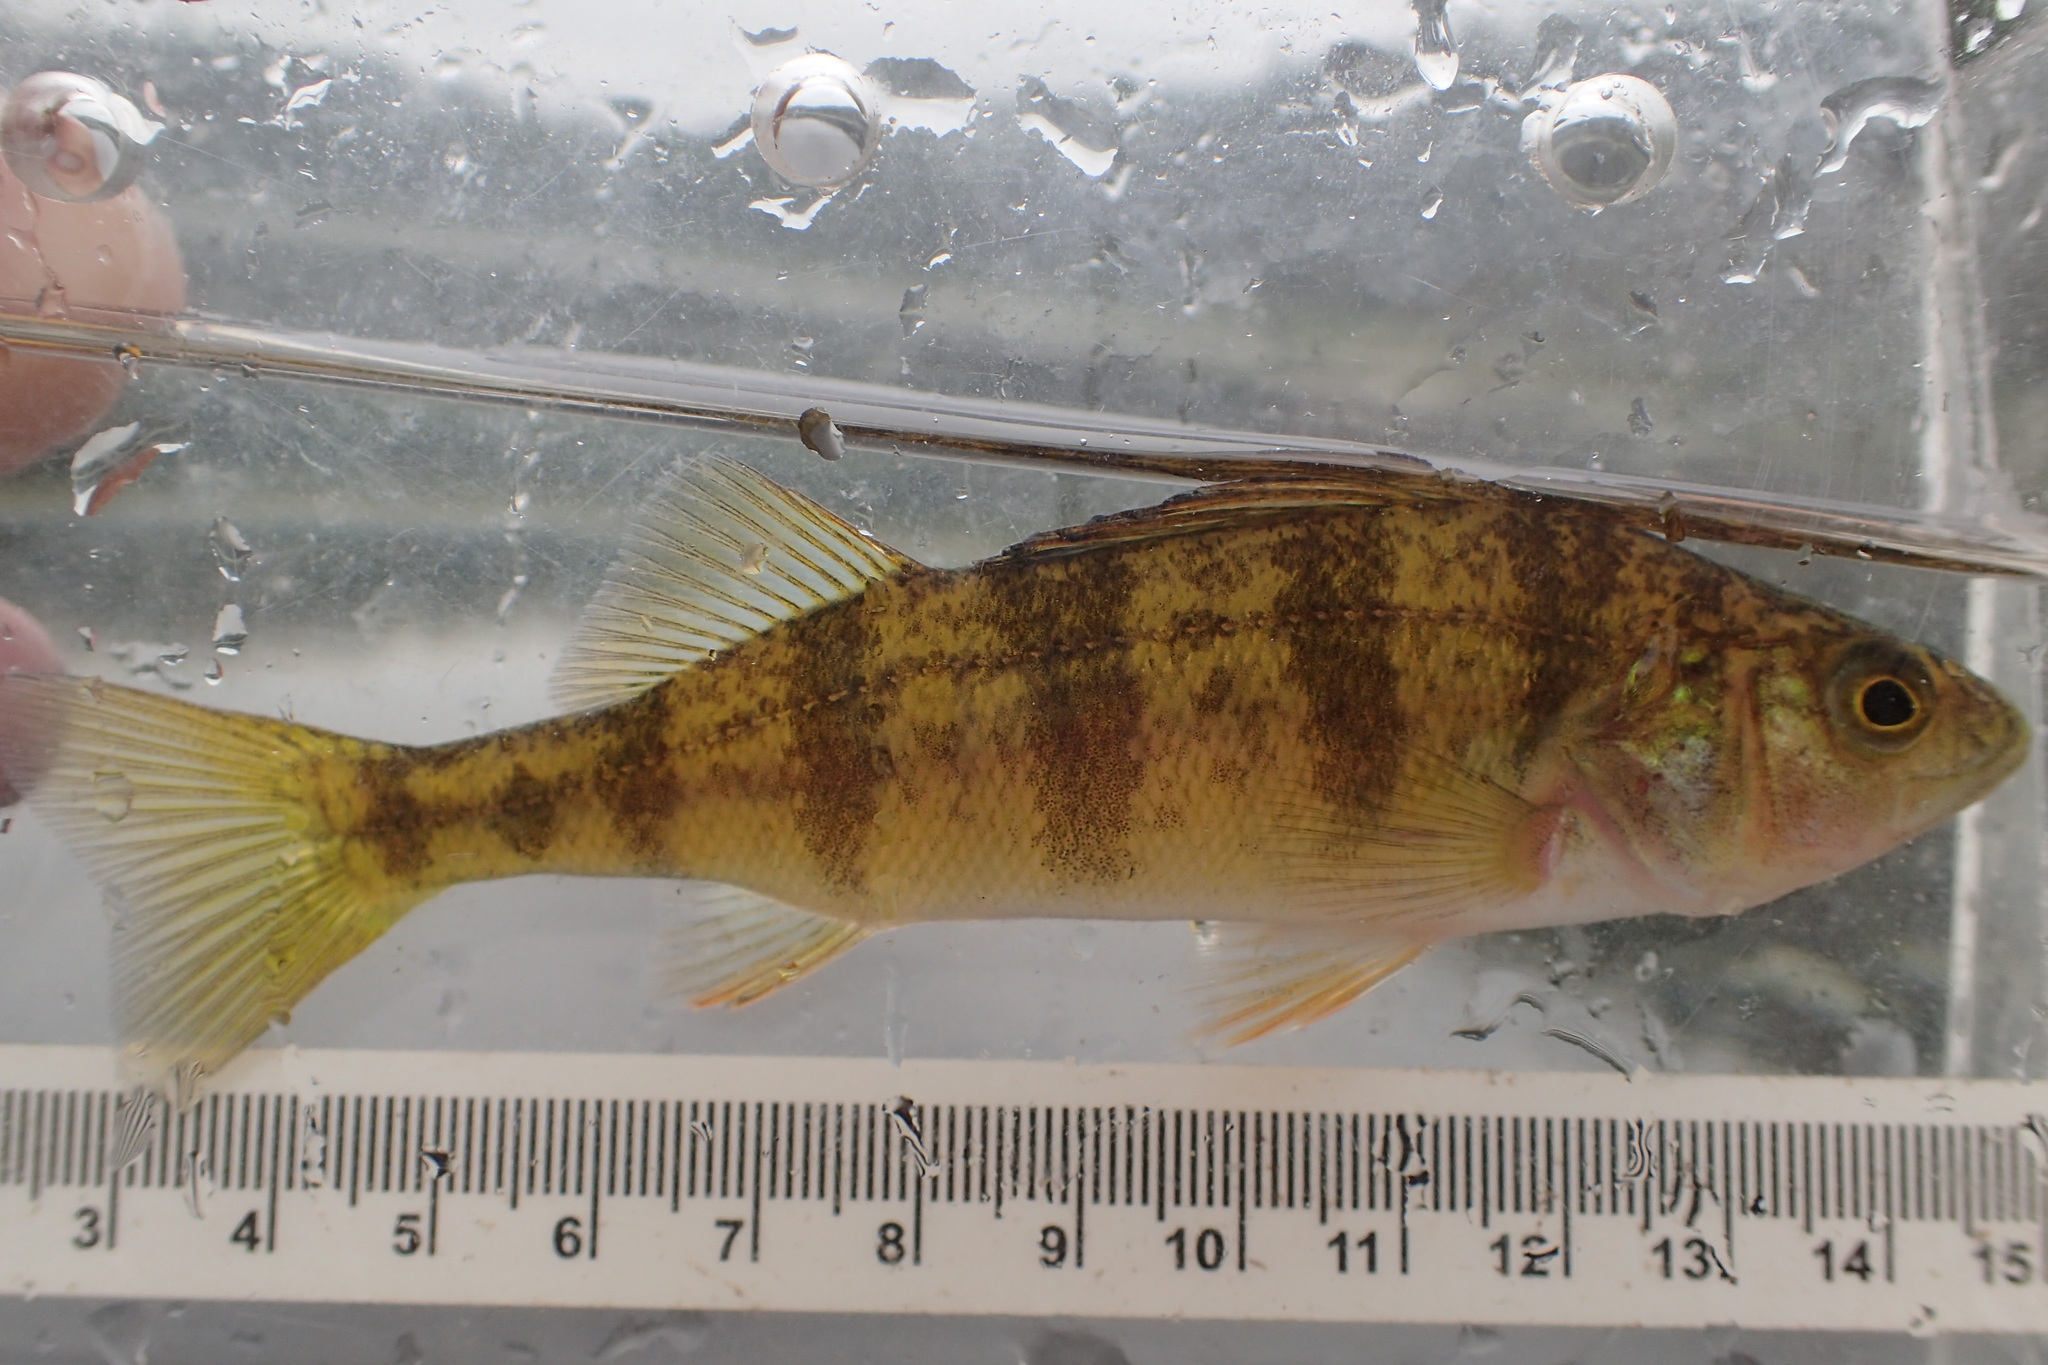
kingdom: Animalia
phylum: Chordata
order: Perciformes
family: Percidae
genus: Perca
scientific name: Perca flavescens
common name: Yellow perch
